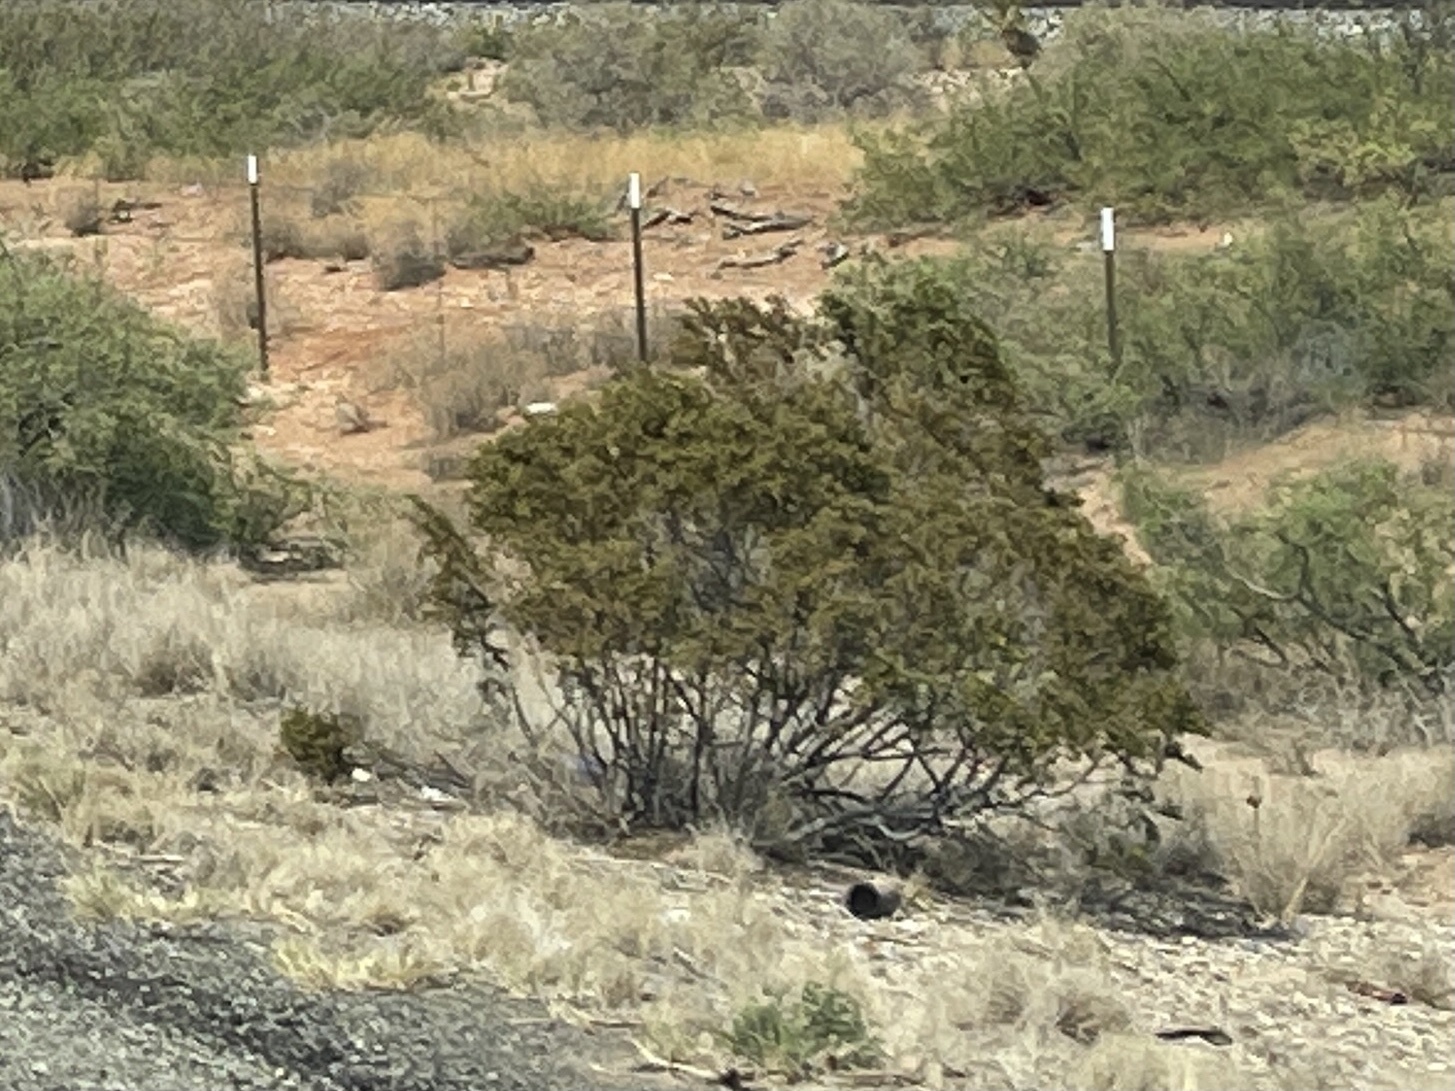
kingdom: Plantae
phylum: Tracheophyta
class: Magnoliopsida
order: Zygophyllales
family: Zygophyllaceae
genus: Larrea
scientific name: Larrea tridentata
